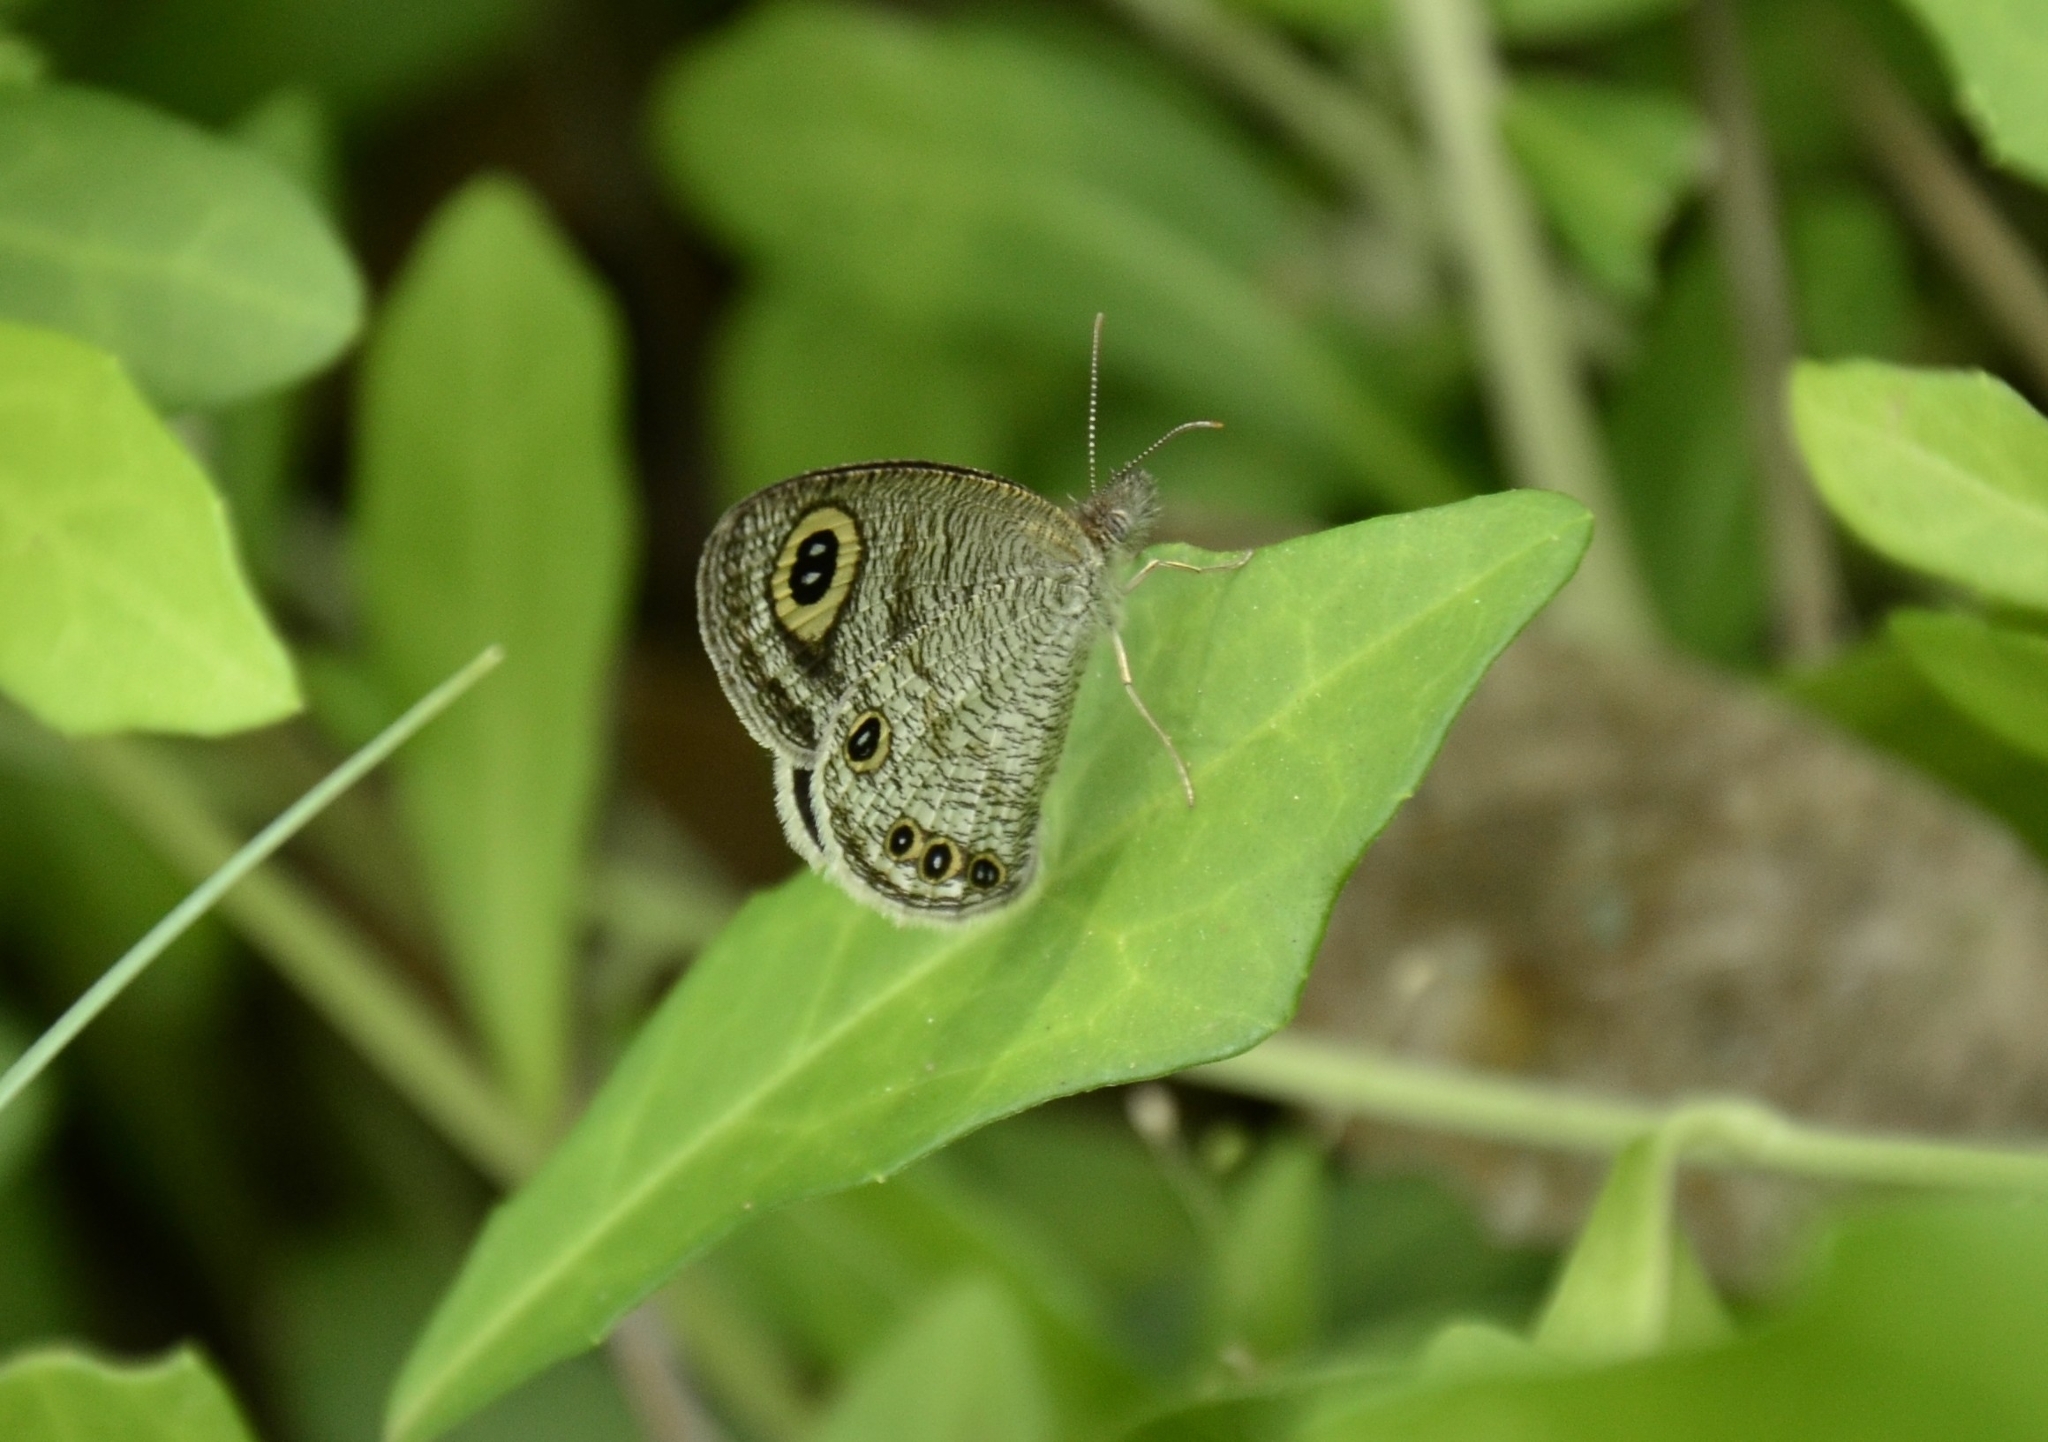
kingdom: Animalia
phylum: Arthropoda
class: Insecta
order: Lepidoptera
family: Nymphalidae
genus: Ypthima
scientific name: Ypthima huebneri
